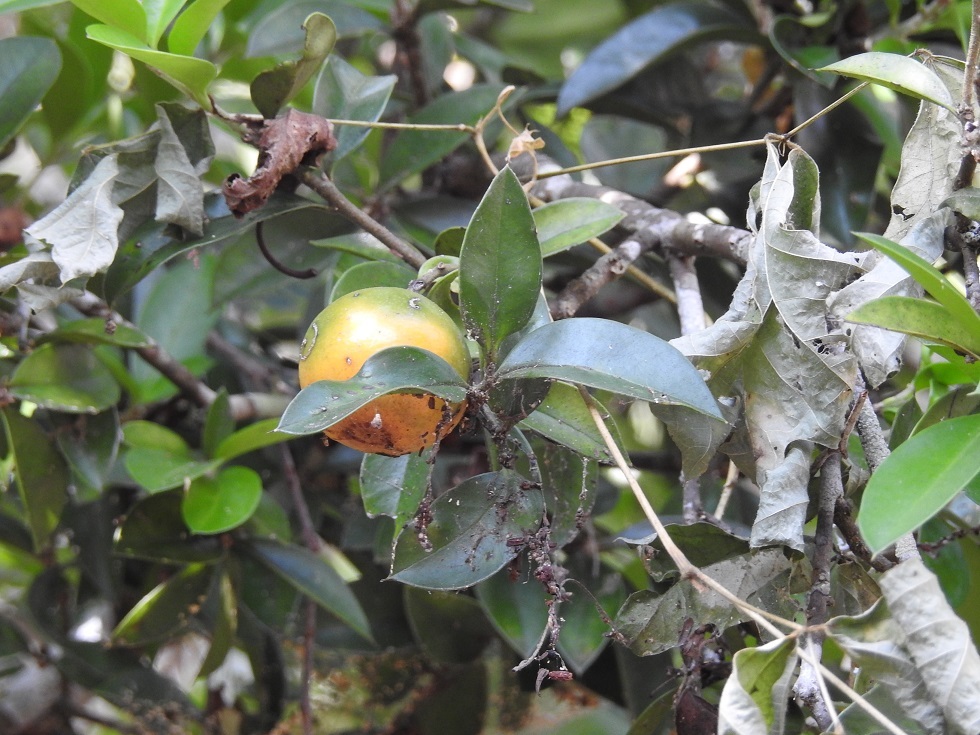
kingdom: Plantae
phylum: Tracheophyta
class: Magnoliopsida
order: Ericales
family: Primulaceae
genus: Bonellia
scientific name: Bonellia macrocarpa
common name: Primrose
